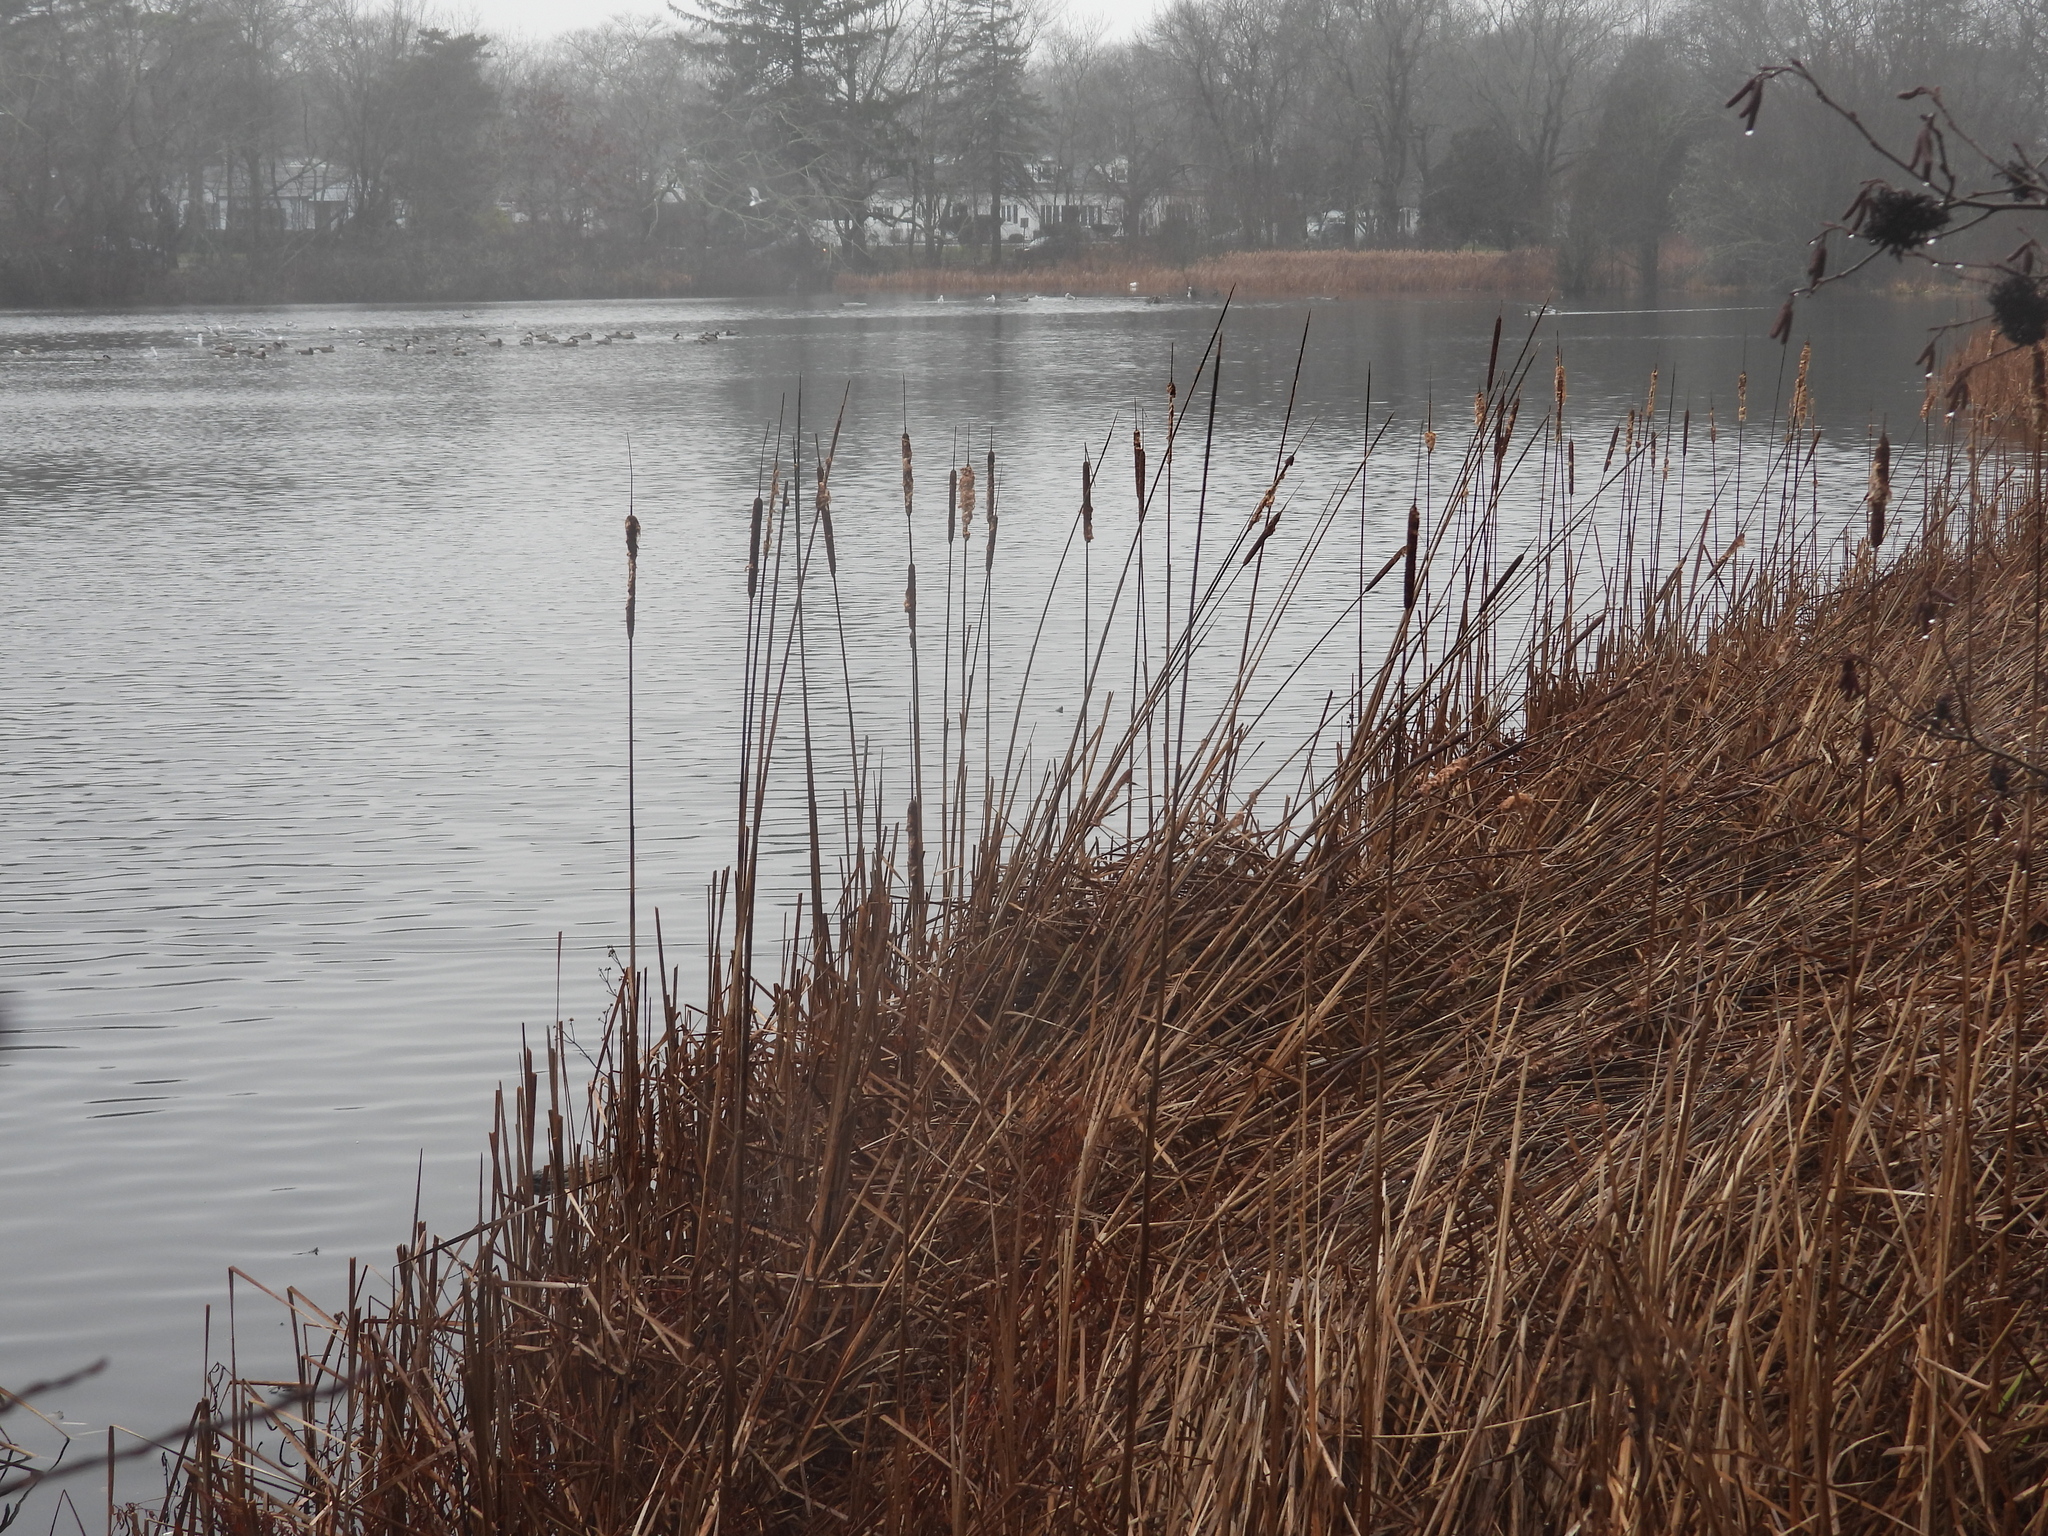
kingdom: Plantae
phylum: Tracheophyta
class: Liliopsida
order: Poales
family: Typhaceae
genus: Typha
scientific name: Typha angustifolia
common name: Lesser bulrush
